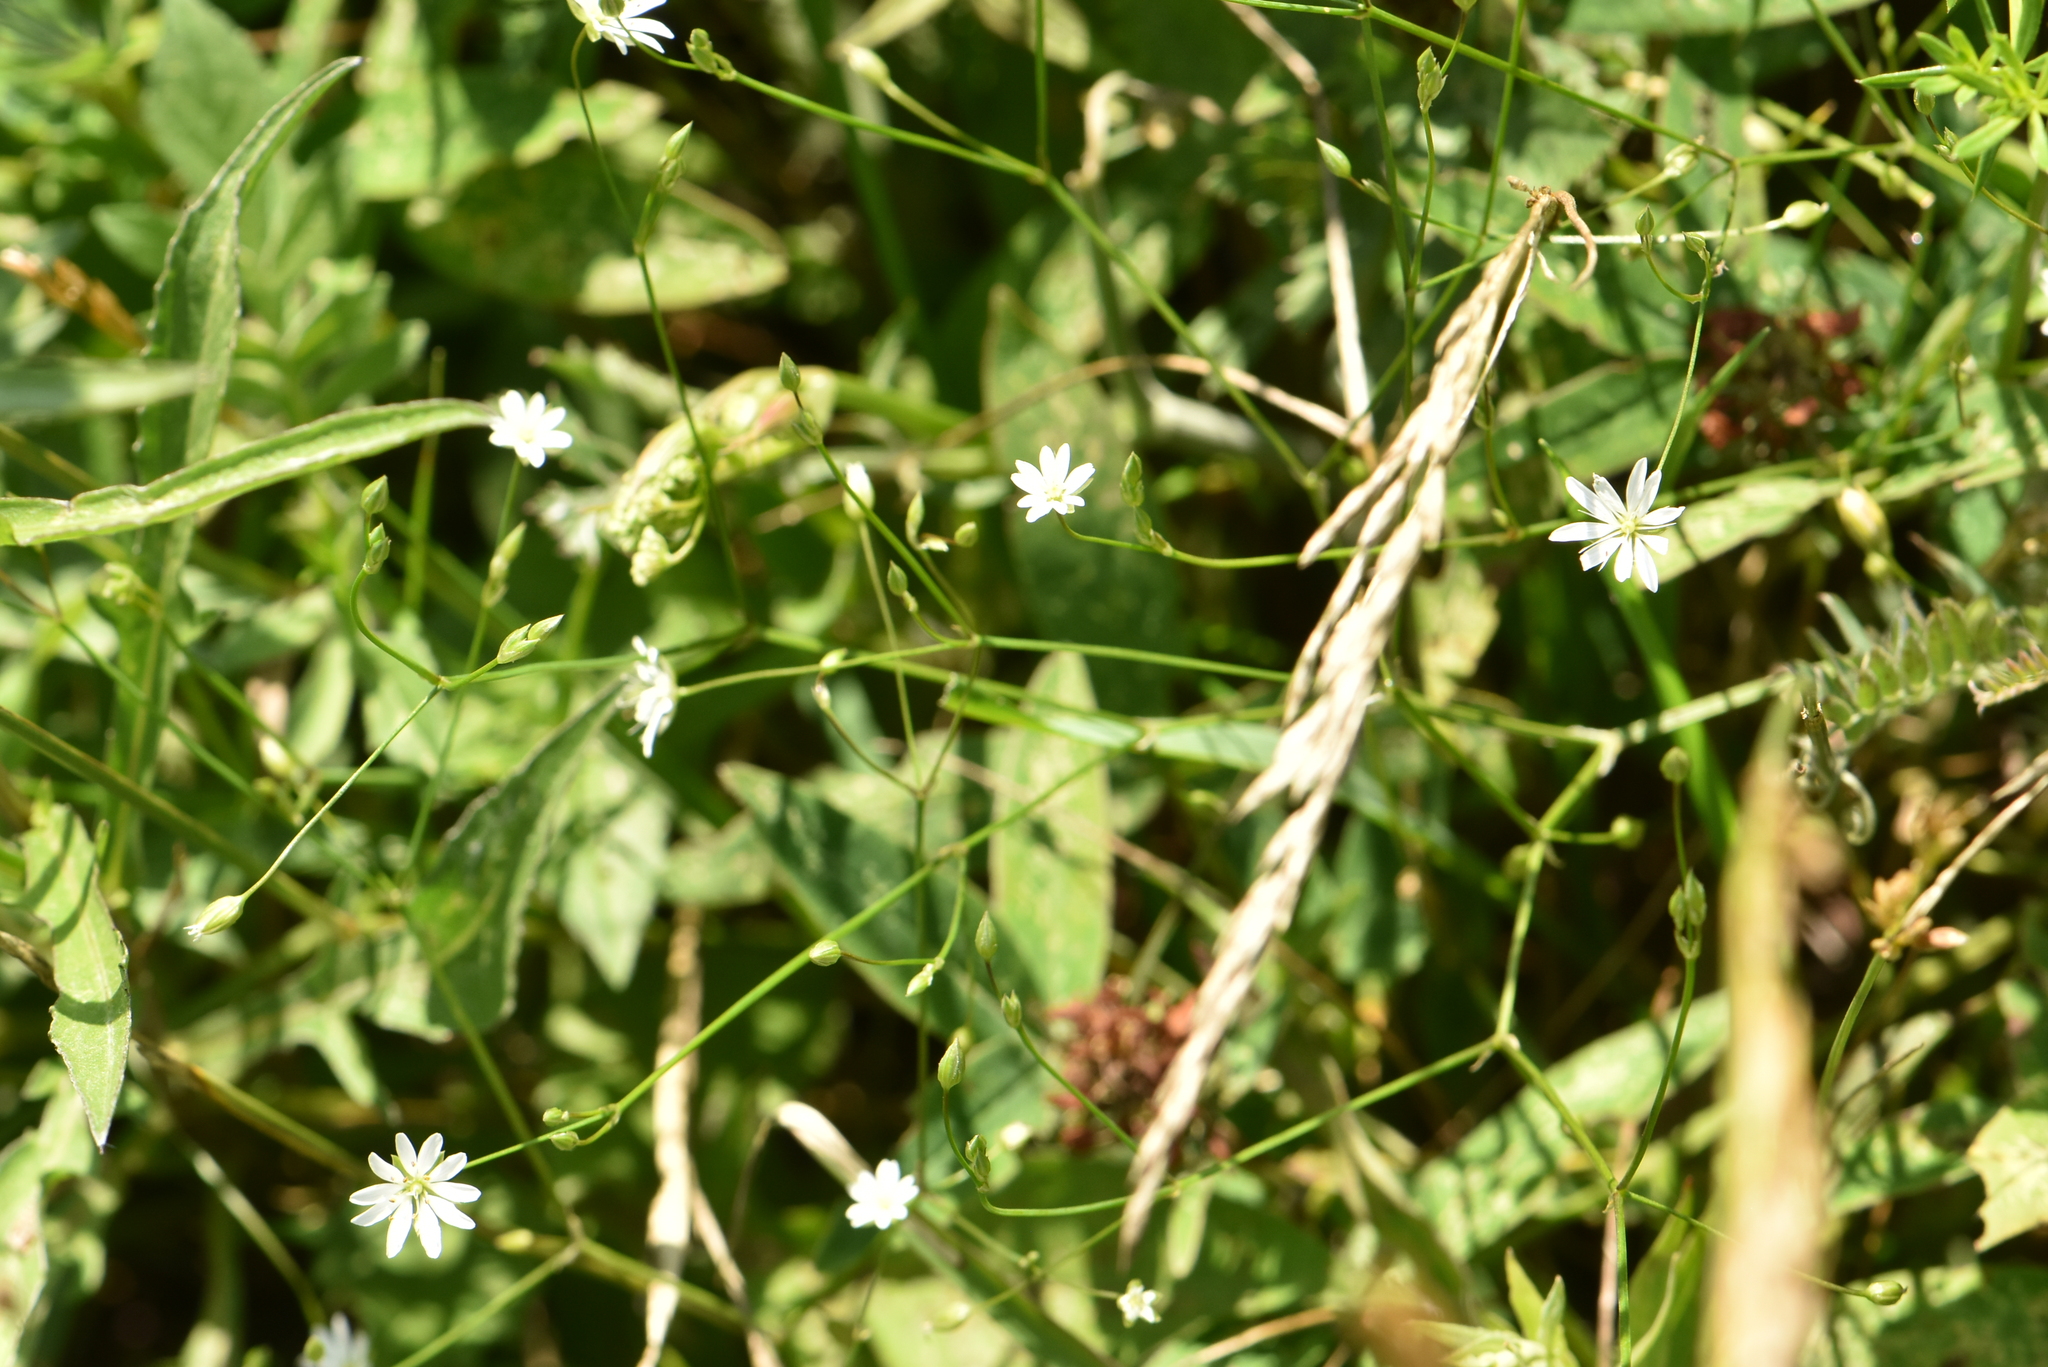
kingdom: Plantae
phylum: Tracheophyta
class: Magnoliopsida
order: Caryophyllales
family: Caryophyllaceae
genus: Stellaria
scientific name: Stellaria graminea
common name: Grass-like starwort
